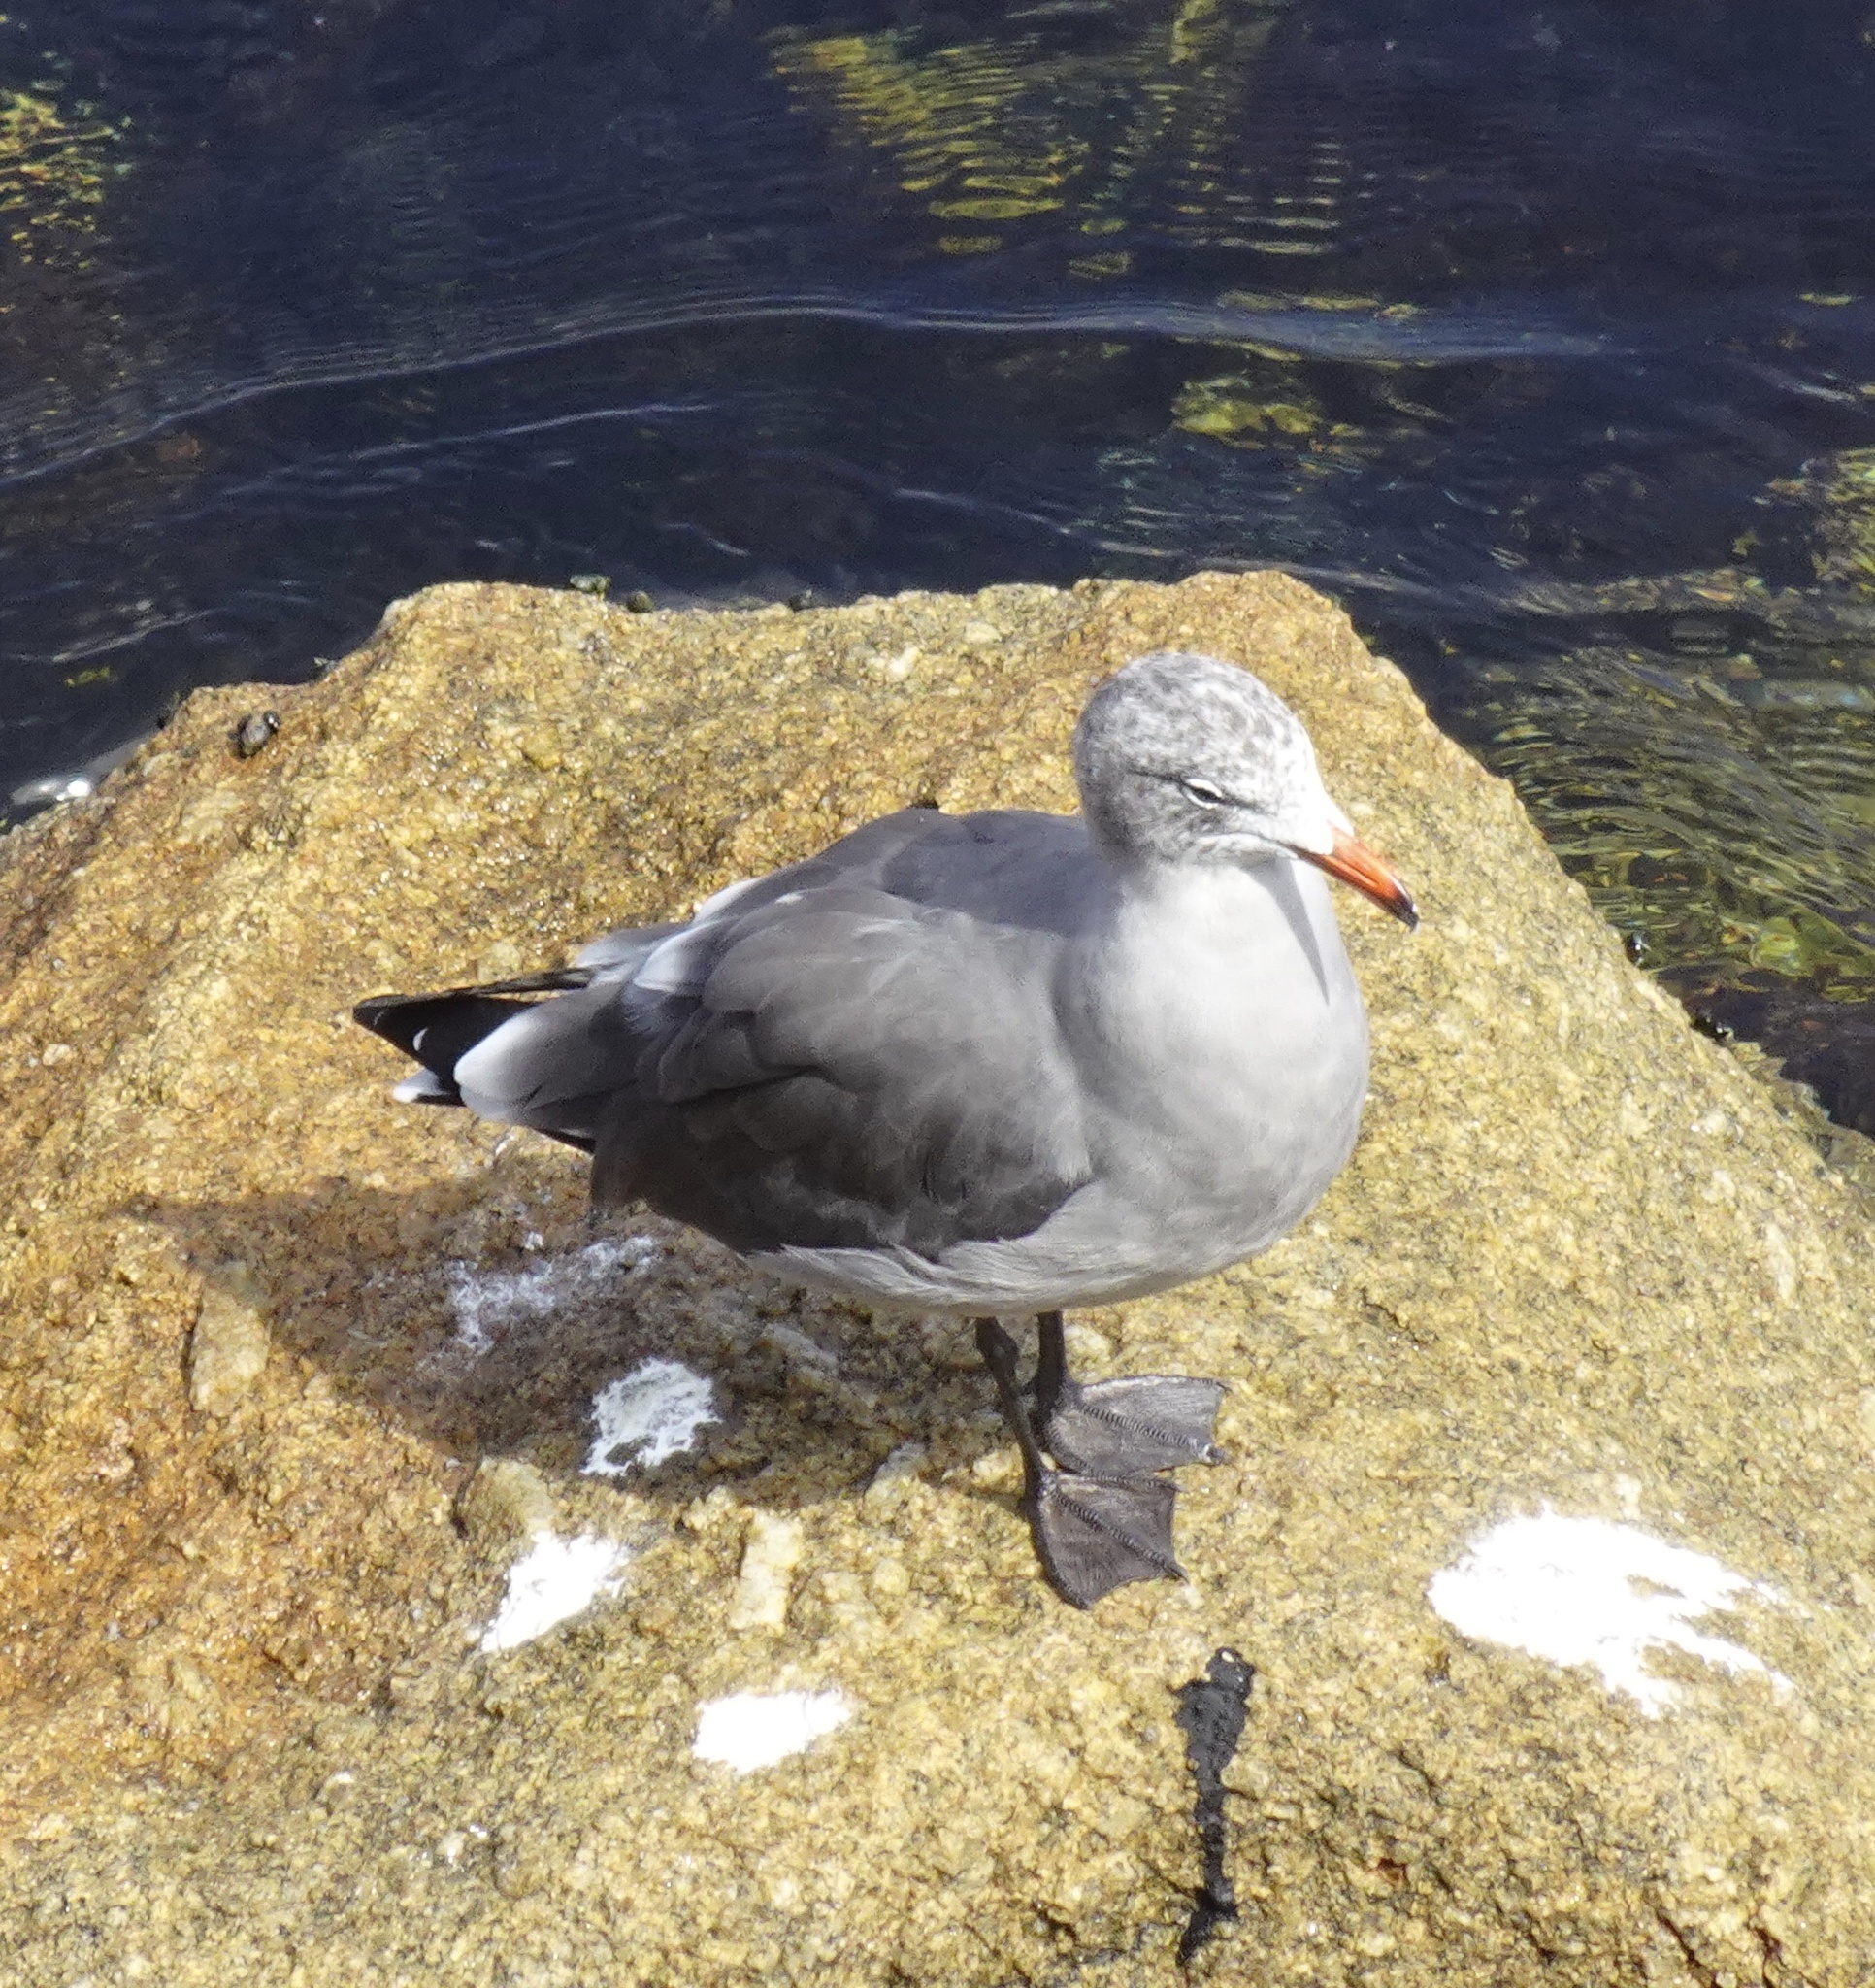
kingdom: Animalia
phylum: Chordata
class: Aves
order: Charadriiformes
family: Laridae
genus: Larus
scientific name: Larus heermanni
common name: Heermann's gull
